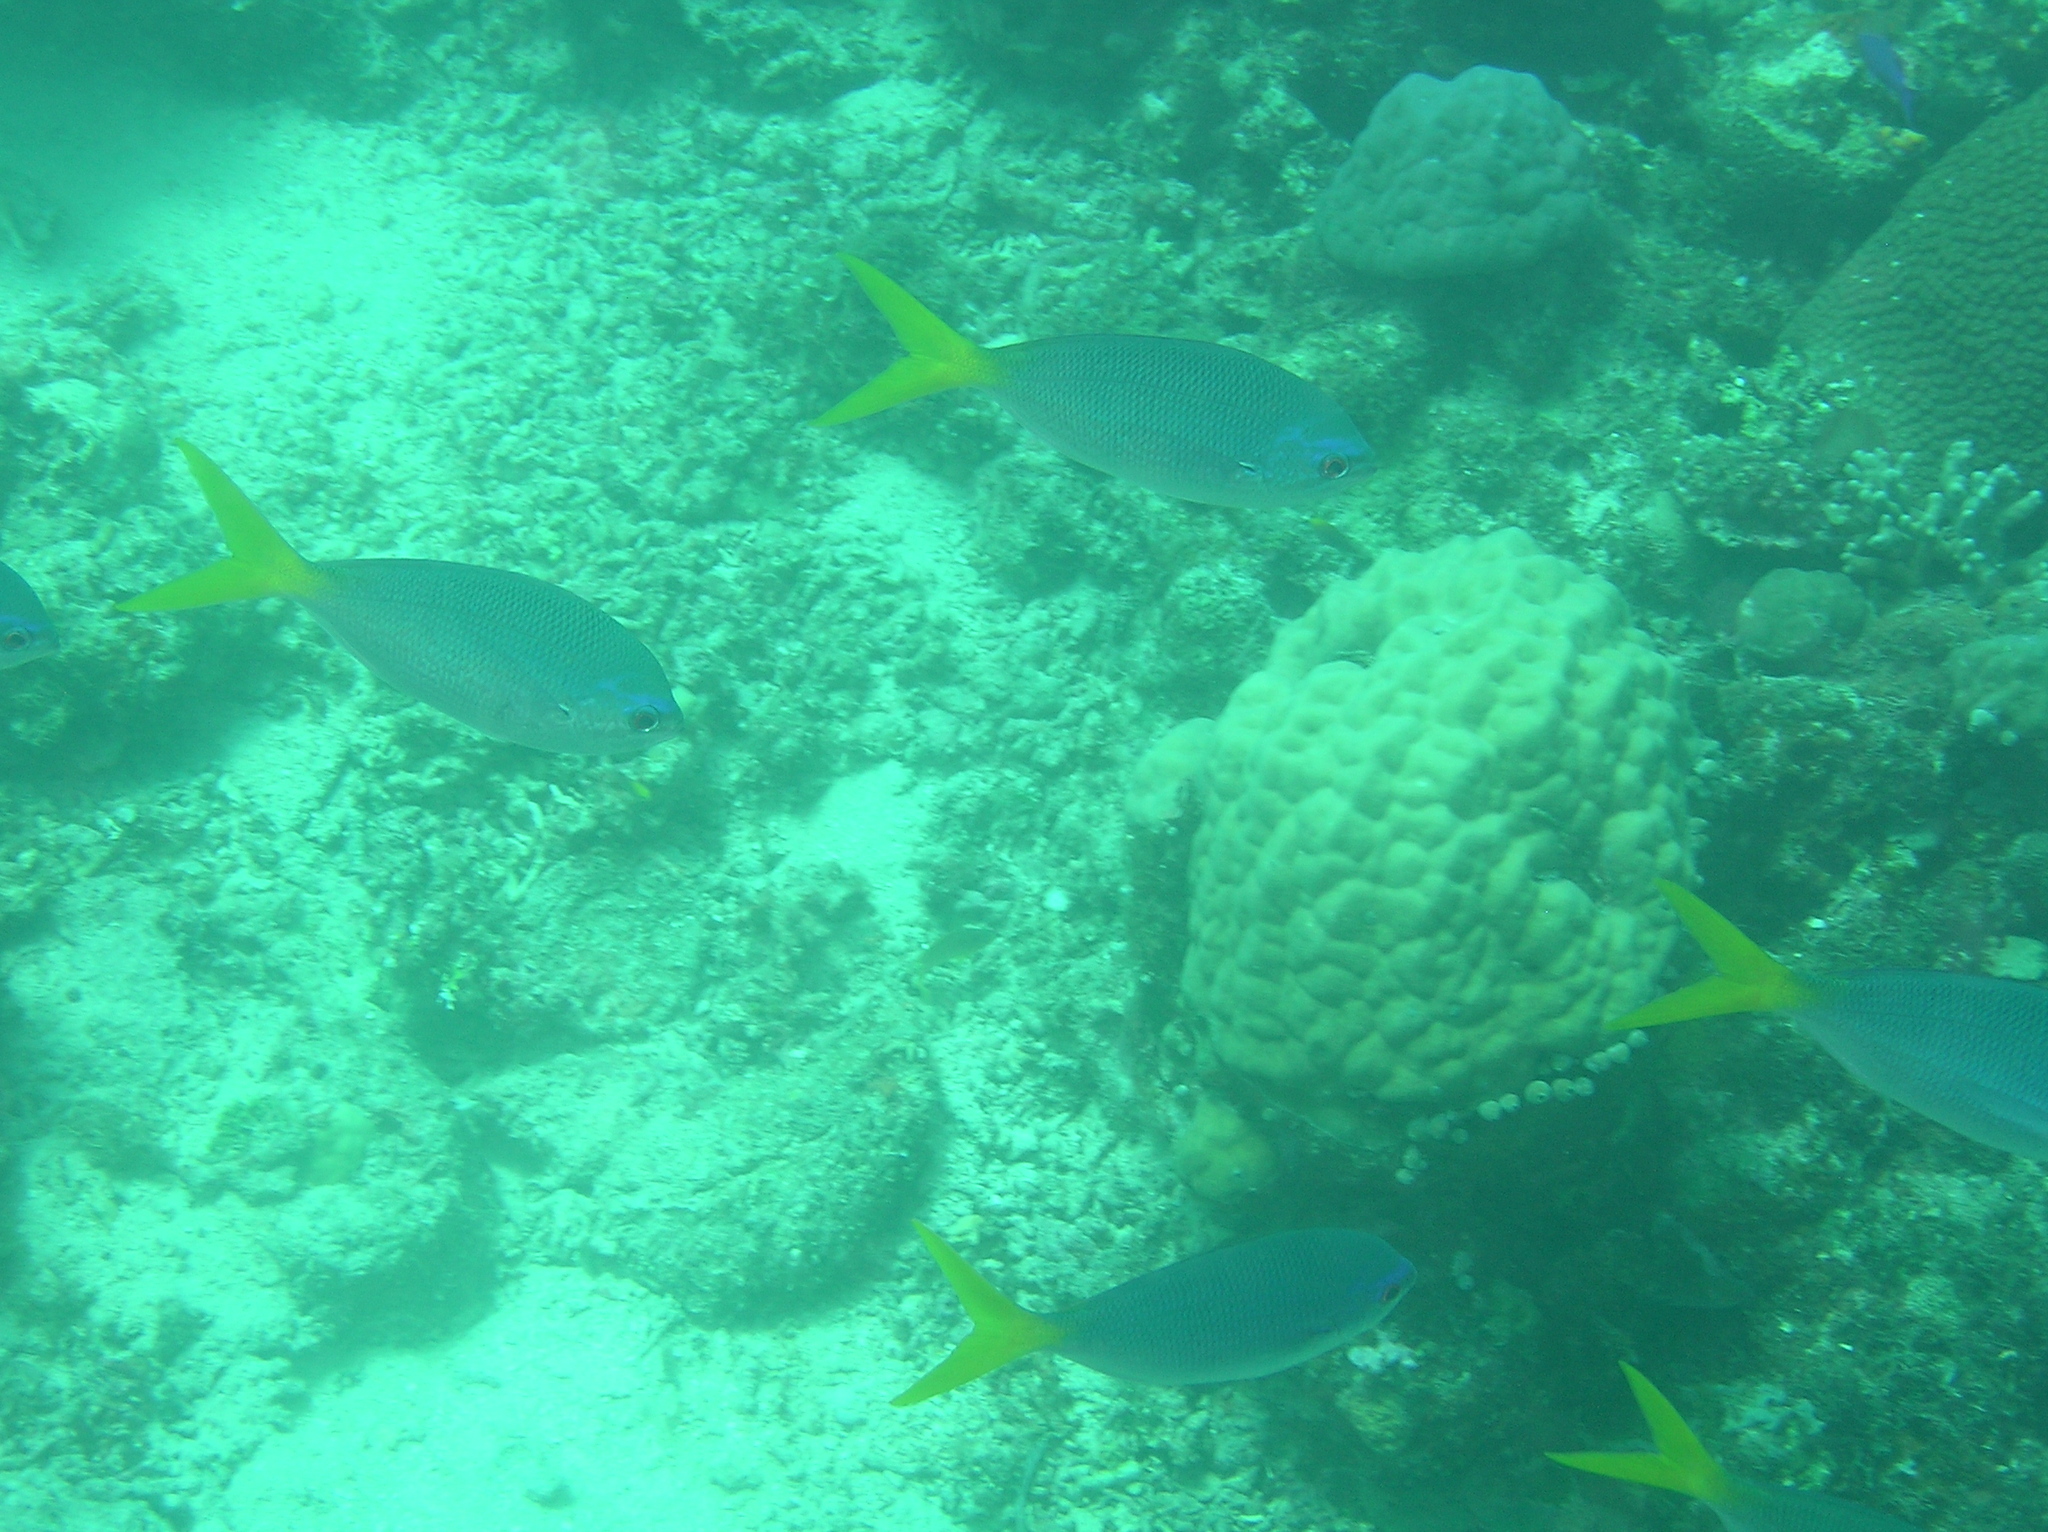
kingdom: Animalia
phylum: Chordata
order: Perciformes
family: Caesionidae
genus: Caesio
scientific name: Caesio cuning
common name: Red-bellied fusilier
